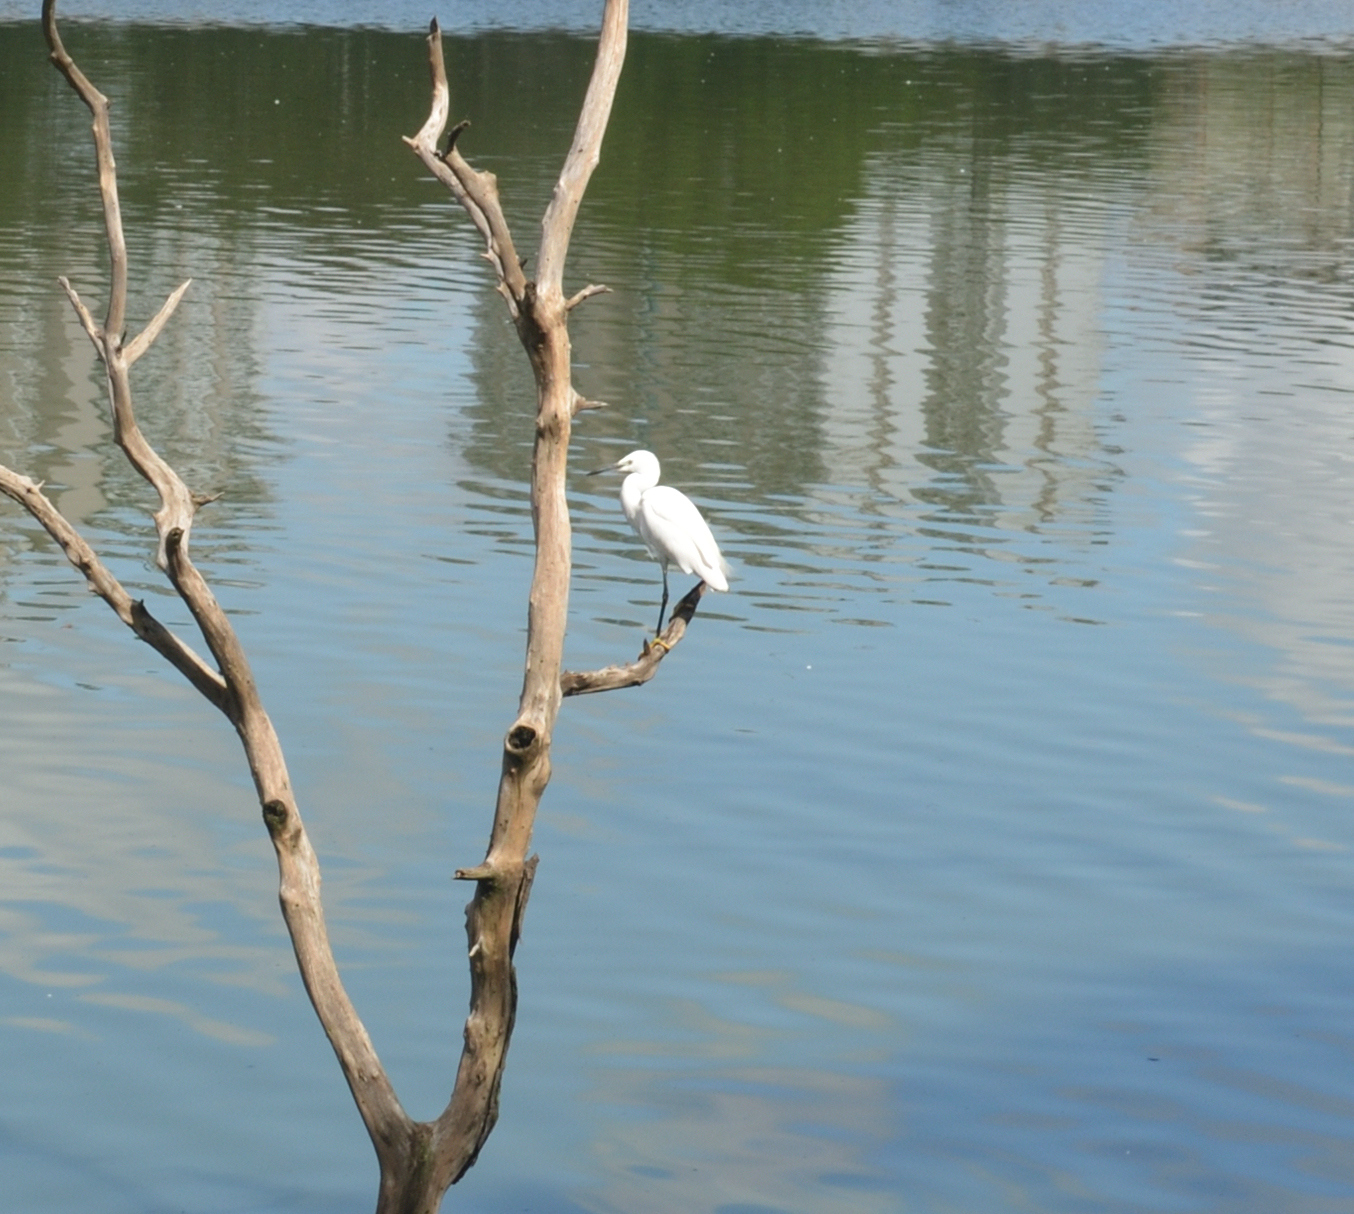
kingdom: Animalia
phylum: Chordata
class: Aves
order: Pelecaniformes
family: Ardeidae
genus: Egretta
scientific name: Egretta garzetta
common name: Little egret
